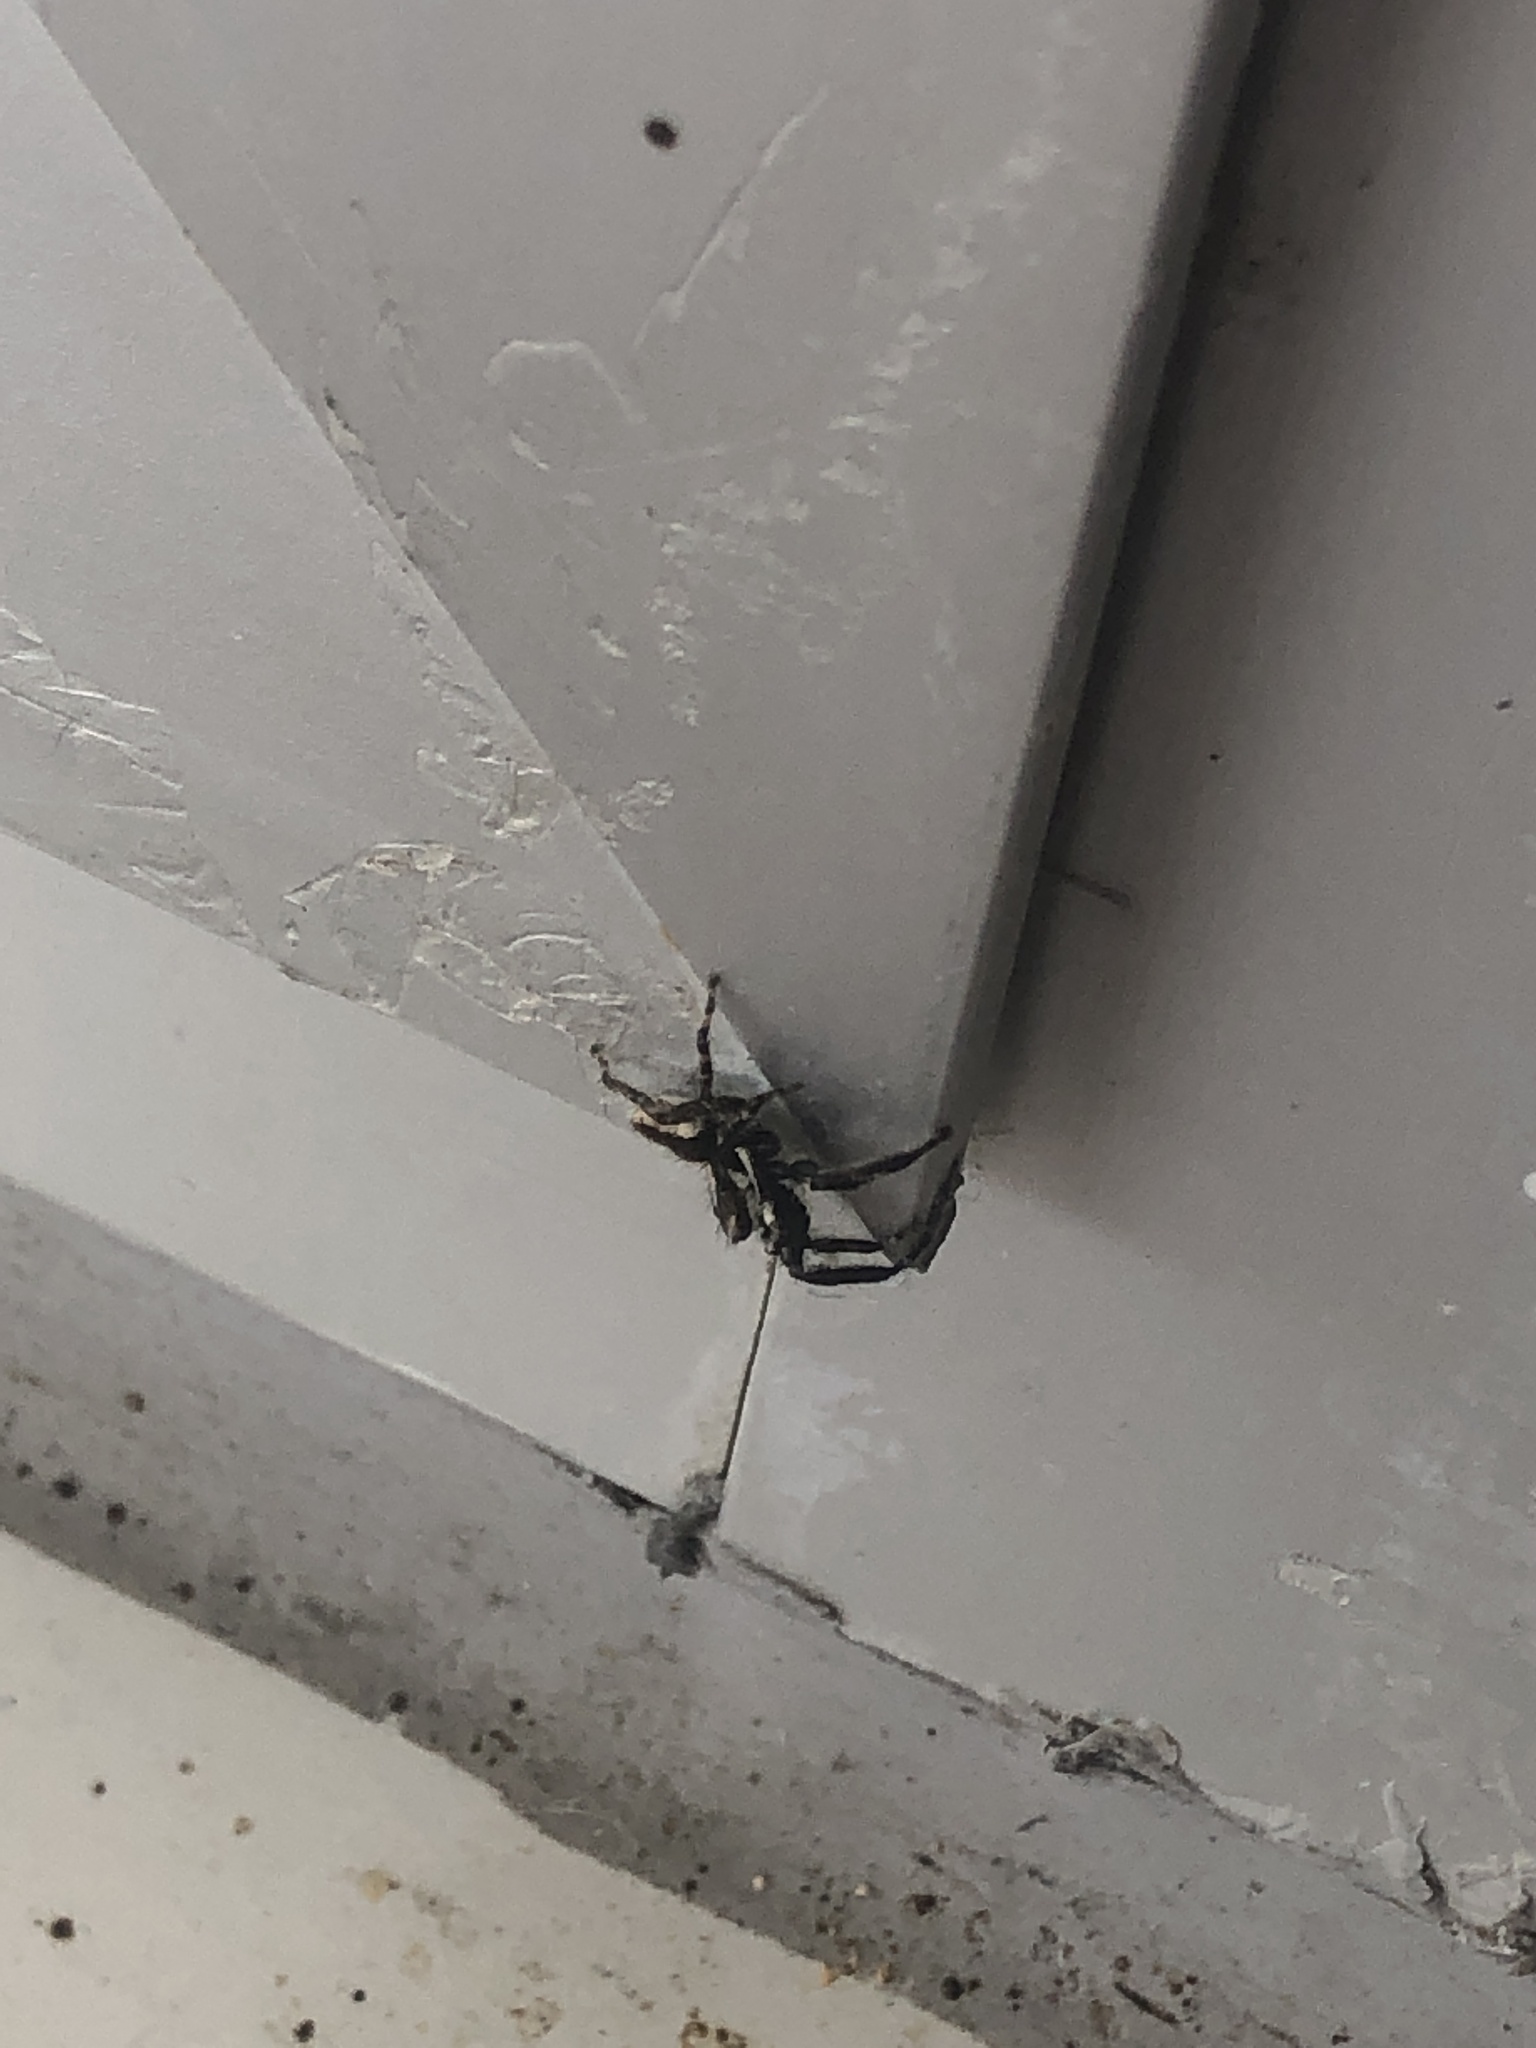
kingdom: Animalia
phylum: Arthropoda
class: Arachnida
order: Araneae
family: Salticidae
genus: Menemerus
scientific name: Menemerus bivittatus
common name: Gray wall jumper
